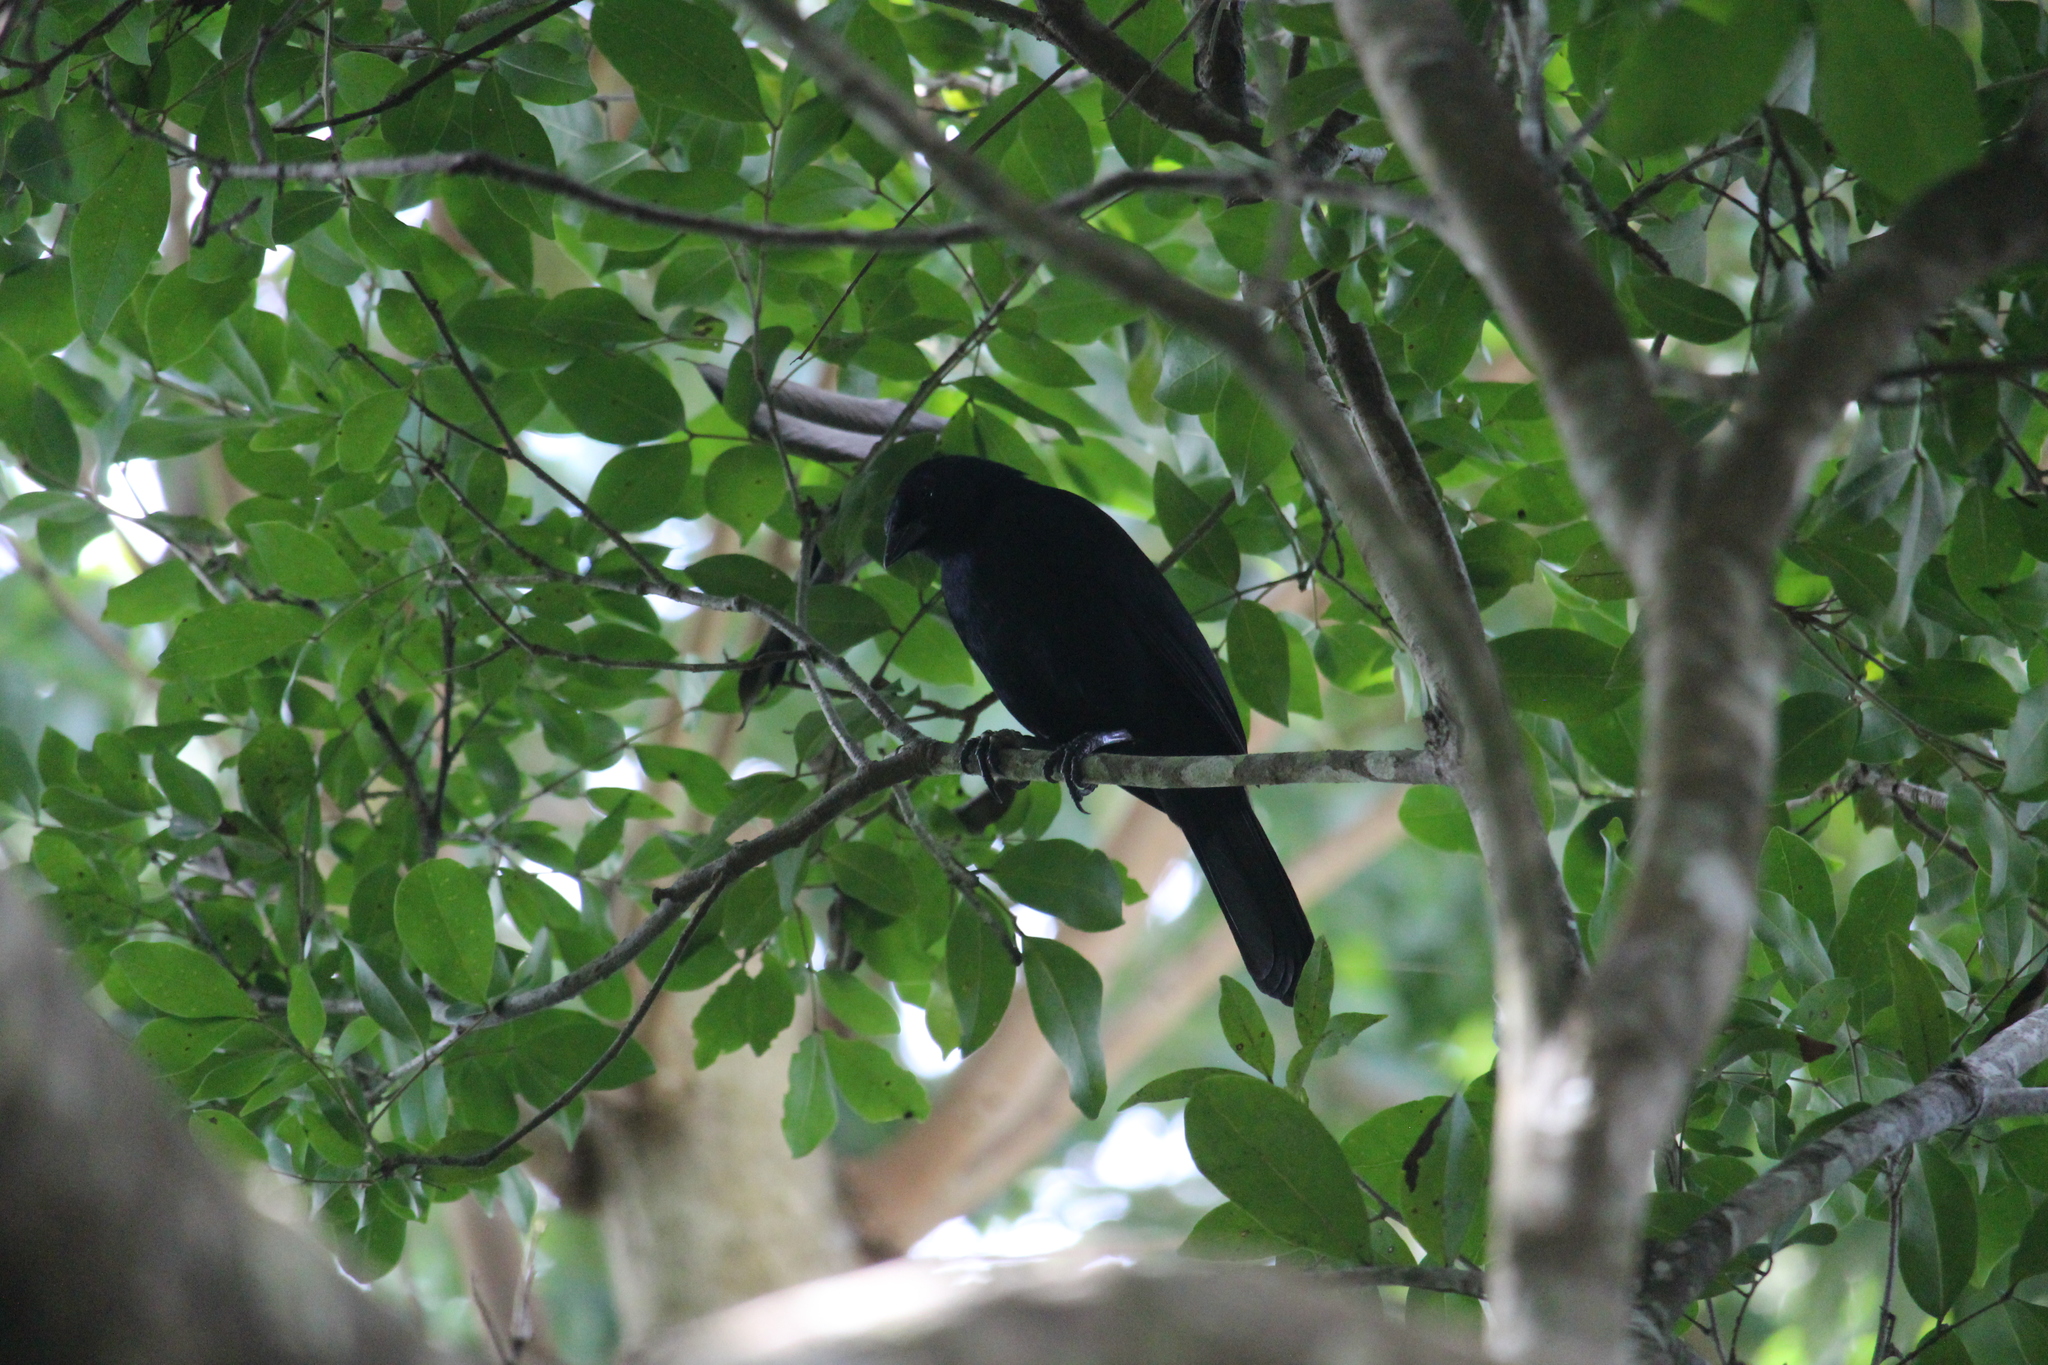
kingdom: Animalia
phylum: Chordata
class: Aves
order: Passeriformes
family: Icteridae
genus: Dives
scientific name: Dives dives
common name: Melodious blackbird
